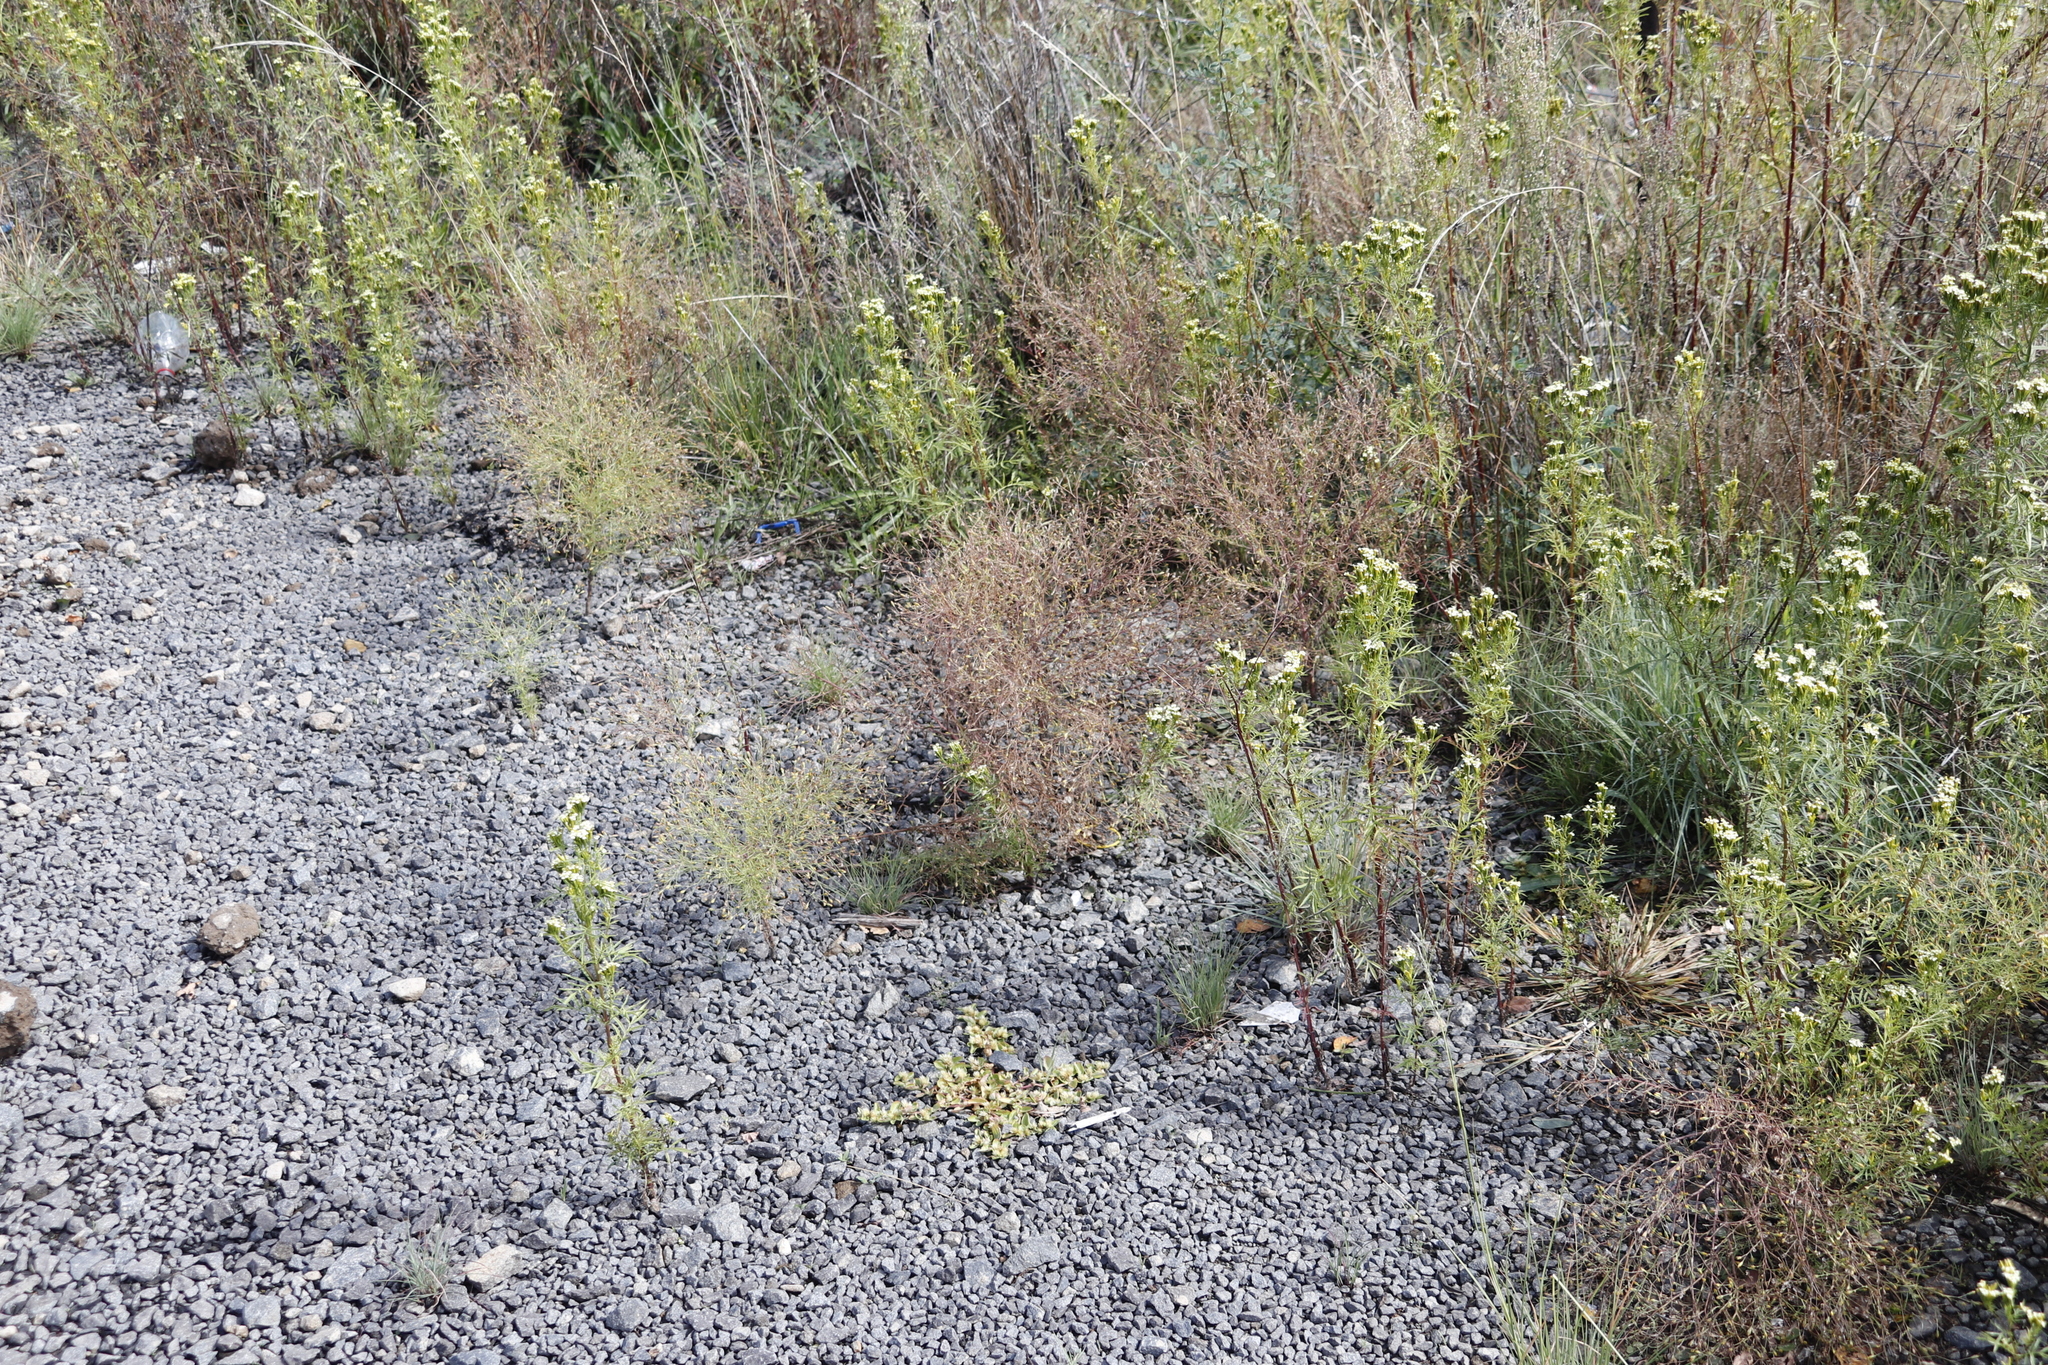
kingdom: Plantae
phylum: Tracheophyta
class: Magnoliopsida
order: Caryophyllales
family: Amaranthaceae
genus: Alternanthera
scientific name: Alternanthera pungens
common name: Khakiweed
